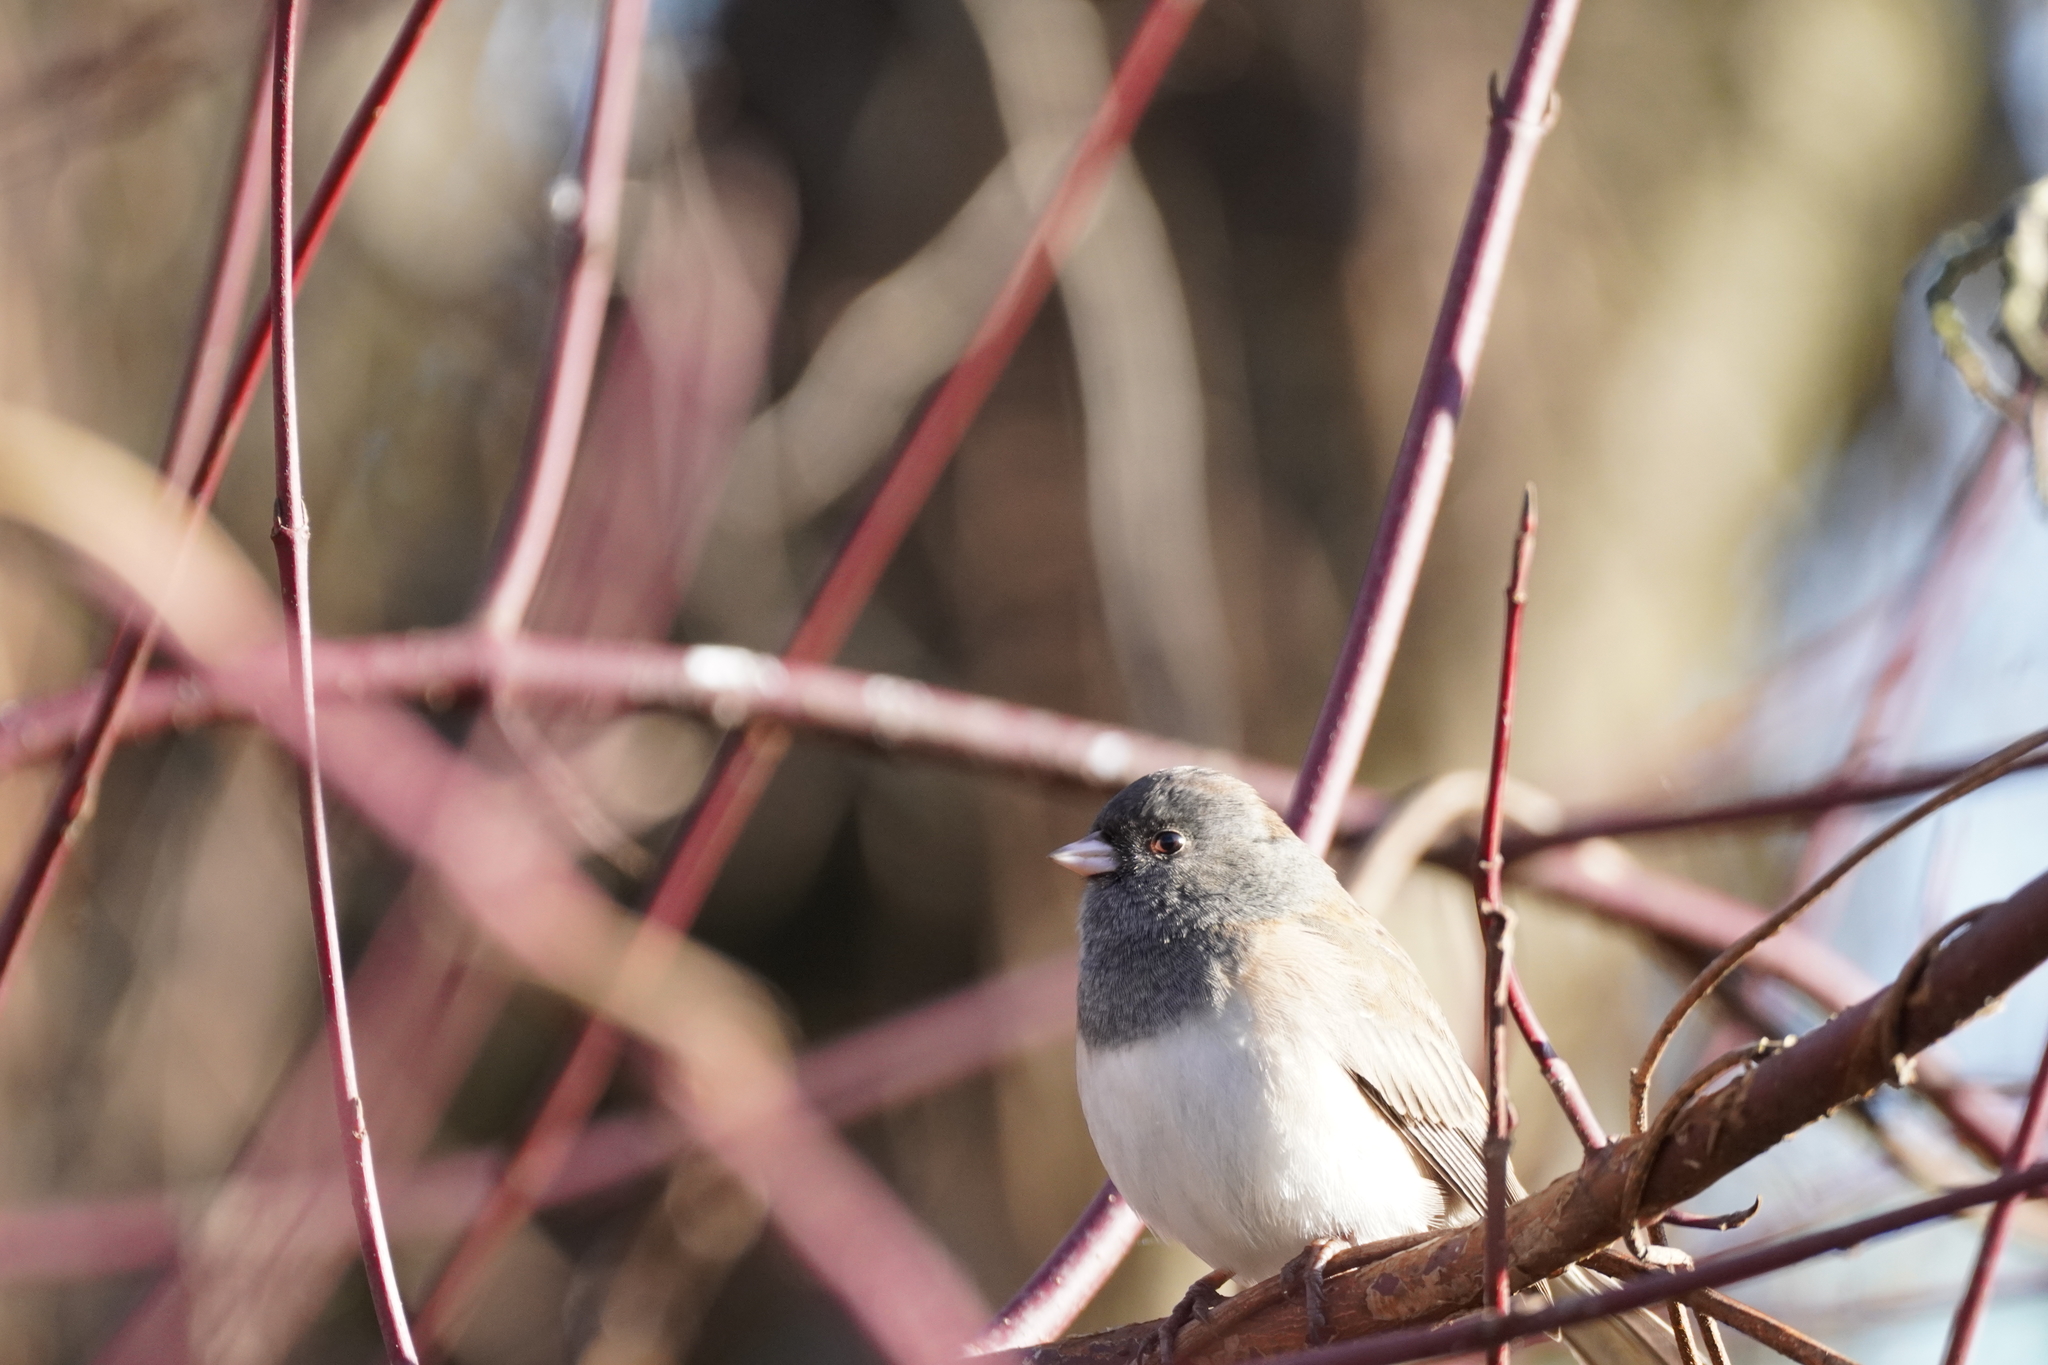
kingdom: Animalia
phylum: Chordata
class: Aves
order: Passeriformes
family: Passerellidae
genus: Junco
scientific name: Junco hyemalis
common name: Dark-eyed junco
